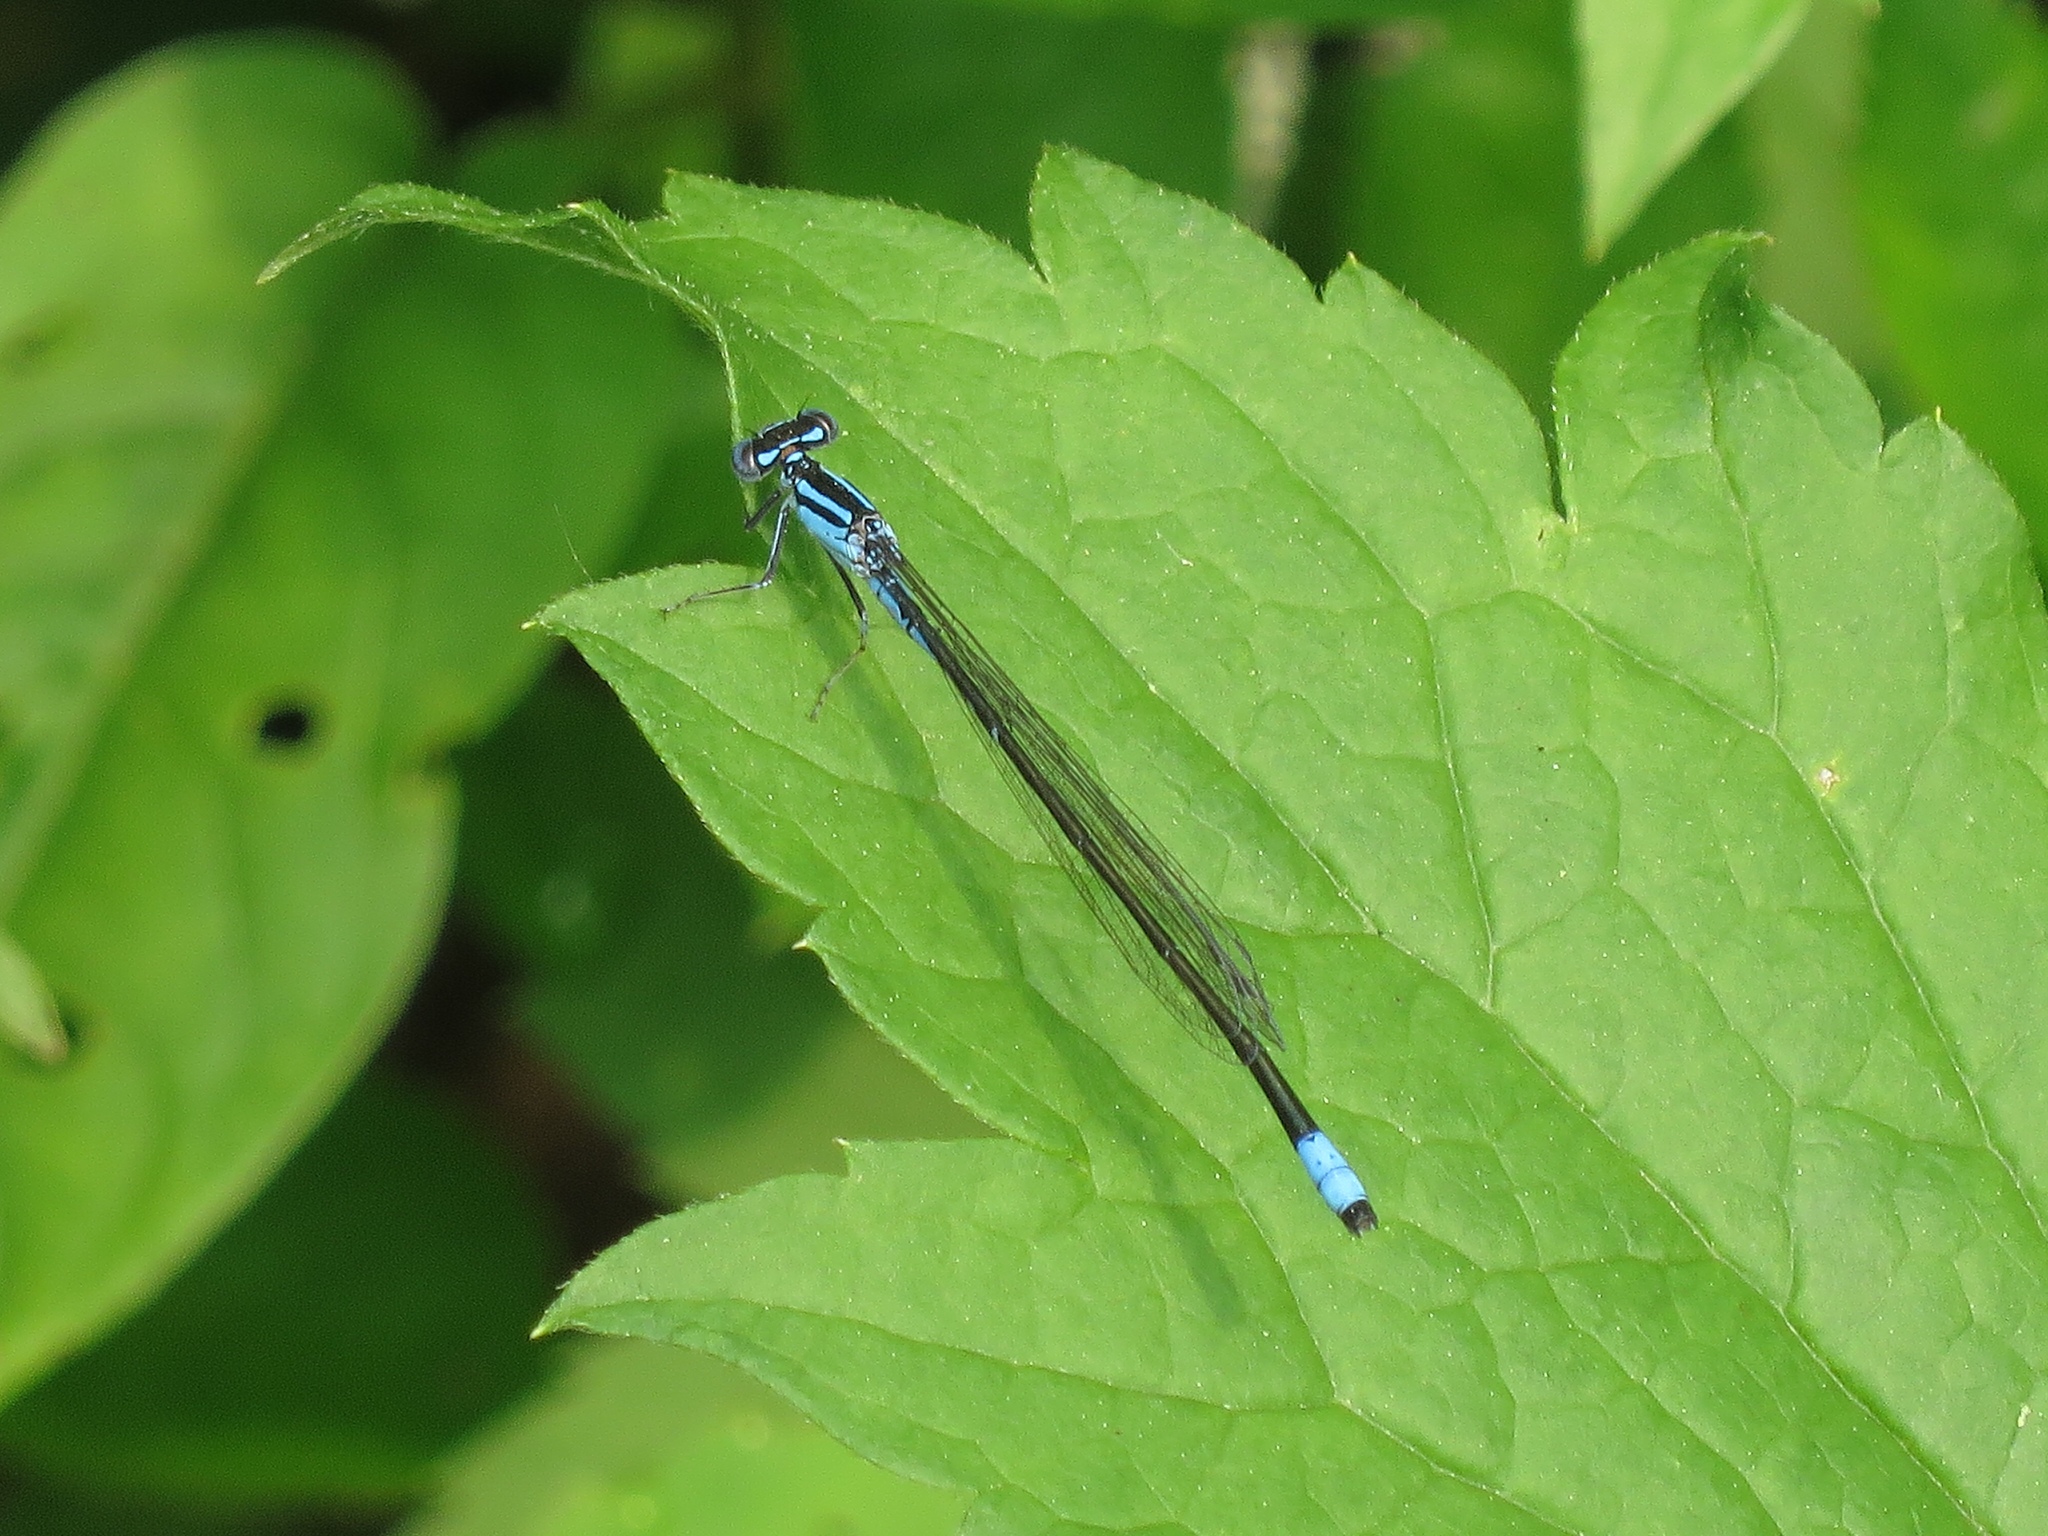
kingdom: Animalia
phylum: Arthropoda
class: Insecta
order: Odonata
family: Coenagrionidae
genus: Enallagma
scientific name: Enallagma divagans
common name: Turquoise bluet
